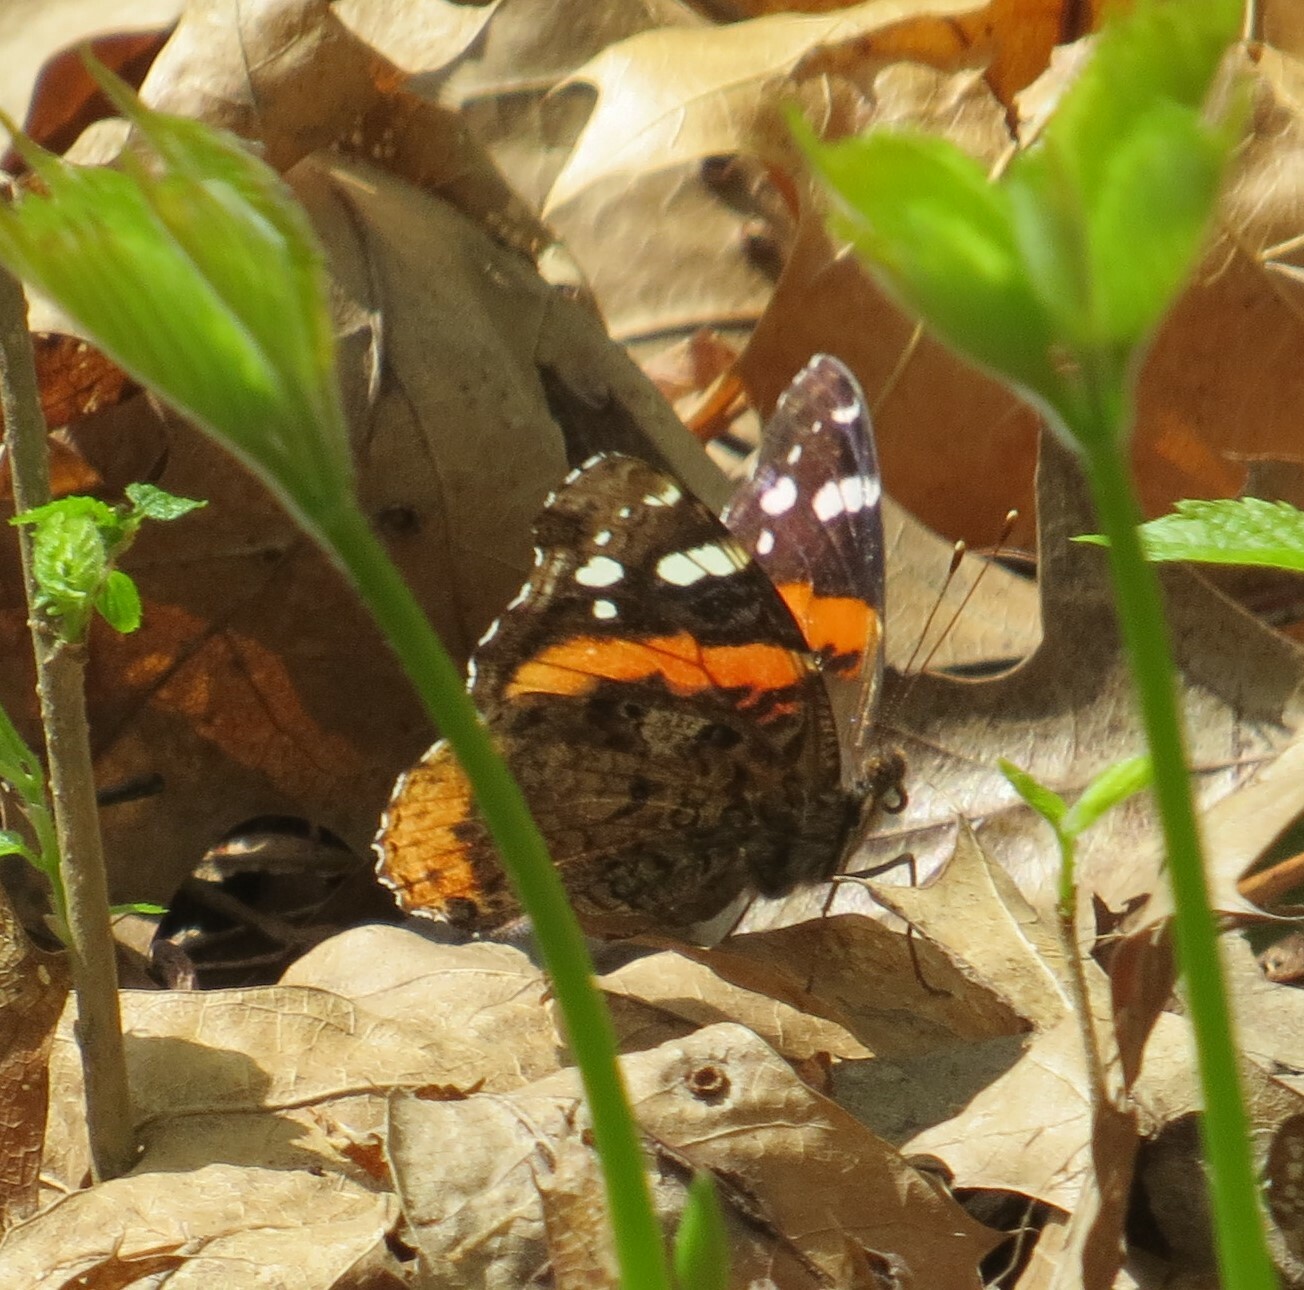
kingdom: Animalia
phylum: Arthropoda
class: Insecta
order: Lepidoptera
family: Nymphalidae
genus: Vanessa
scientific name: Vanessa atalanta
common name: Red admiral
